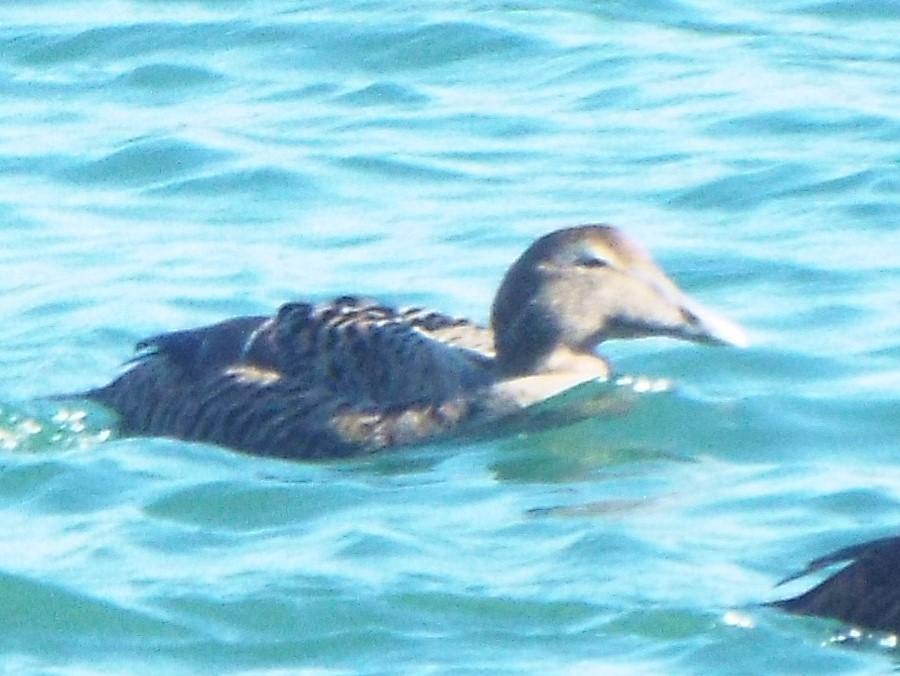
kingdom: Animalia
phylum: Chordata
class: Aves
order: Anseriformes
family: Anatidae
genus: Somateria
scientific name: Somateria mollissima
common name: Common eider
